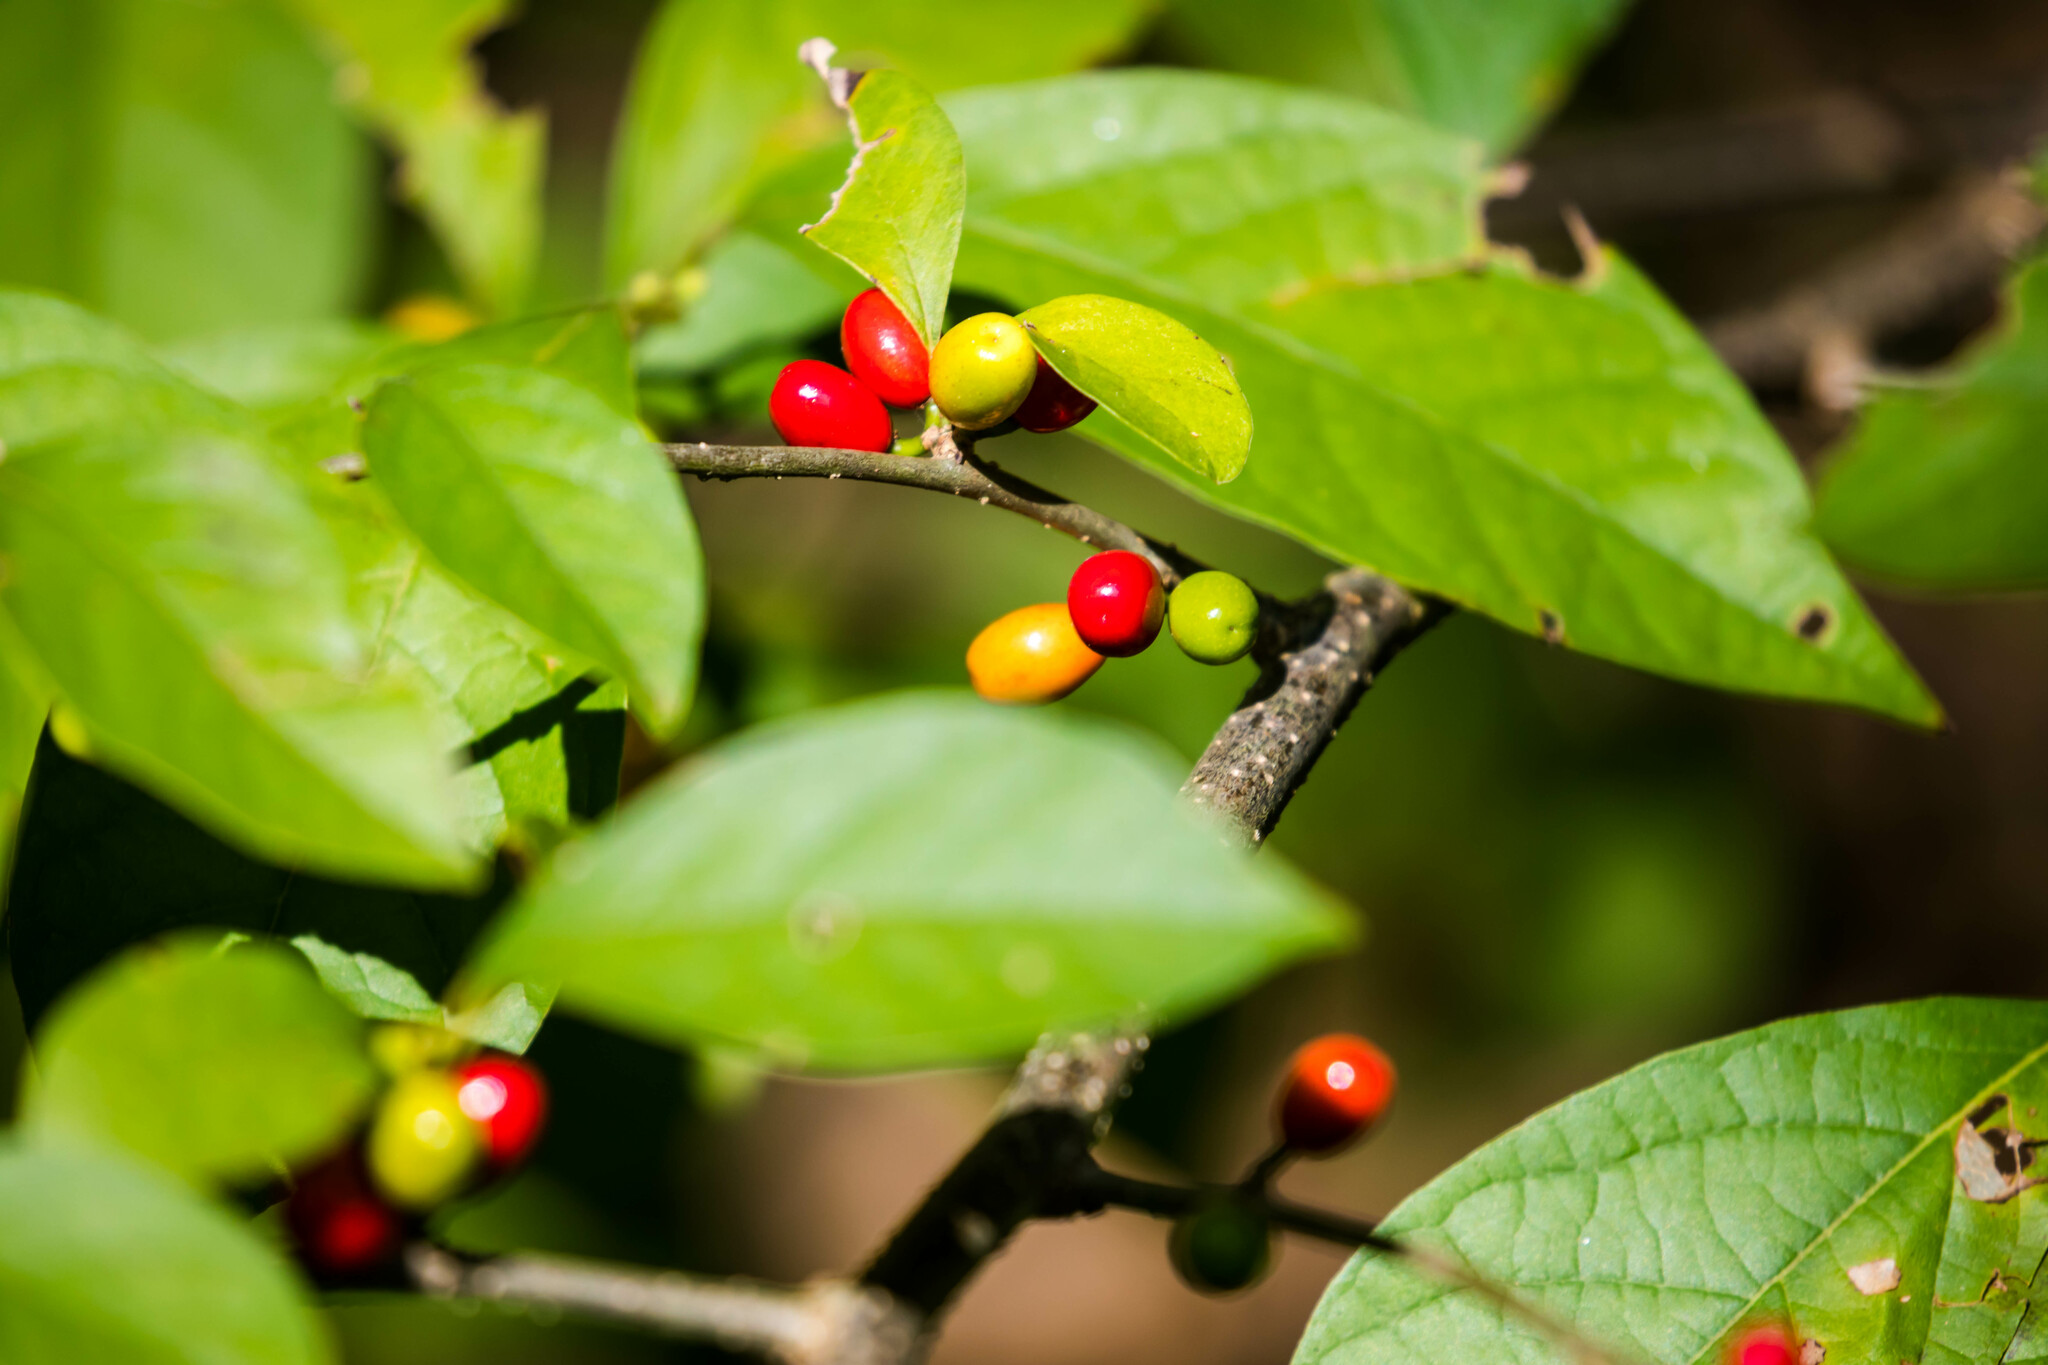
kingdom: Plantae
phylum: Tracheophyta
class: Magnoliopsida
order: Laurales
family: Lauraceae
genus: Lindera
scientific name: Lindera benzoin
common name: Spicebush
